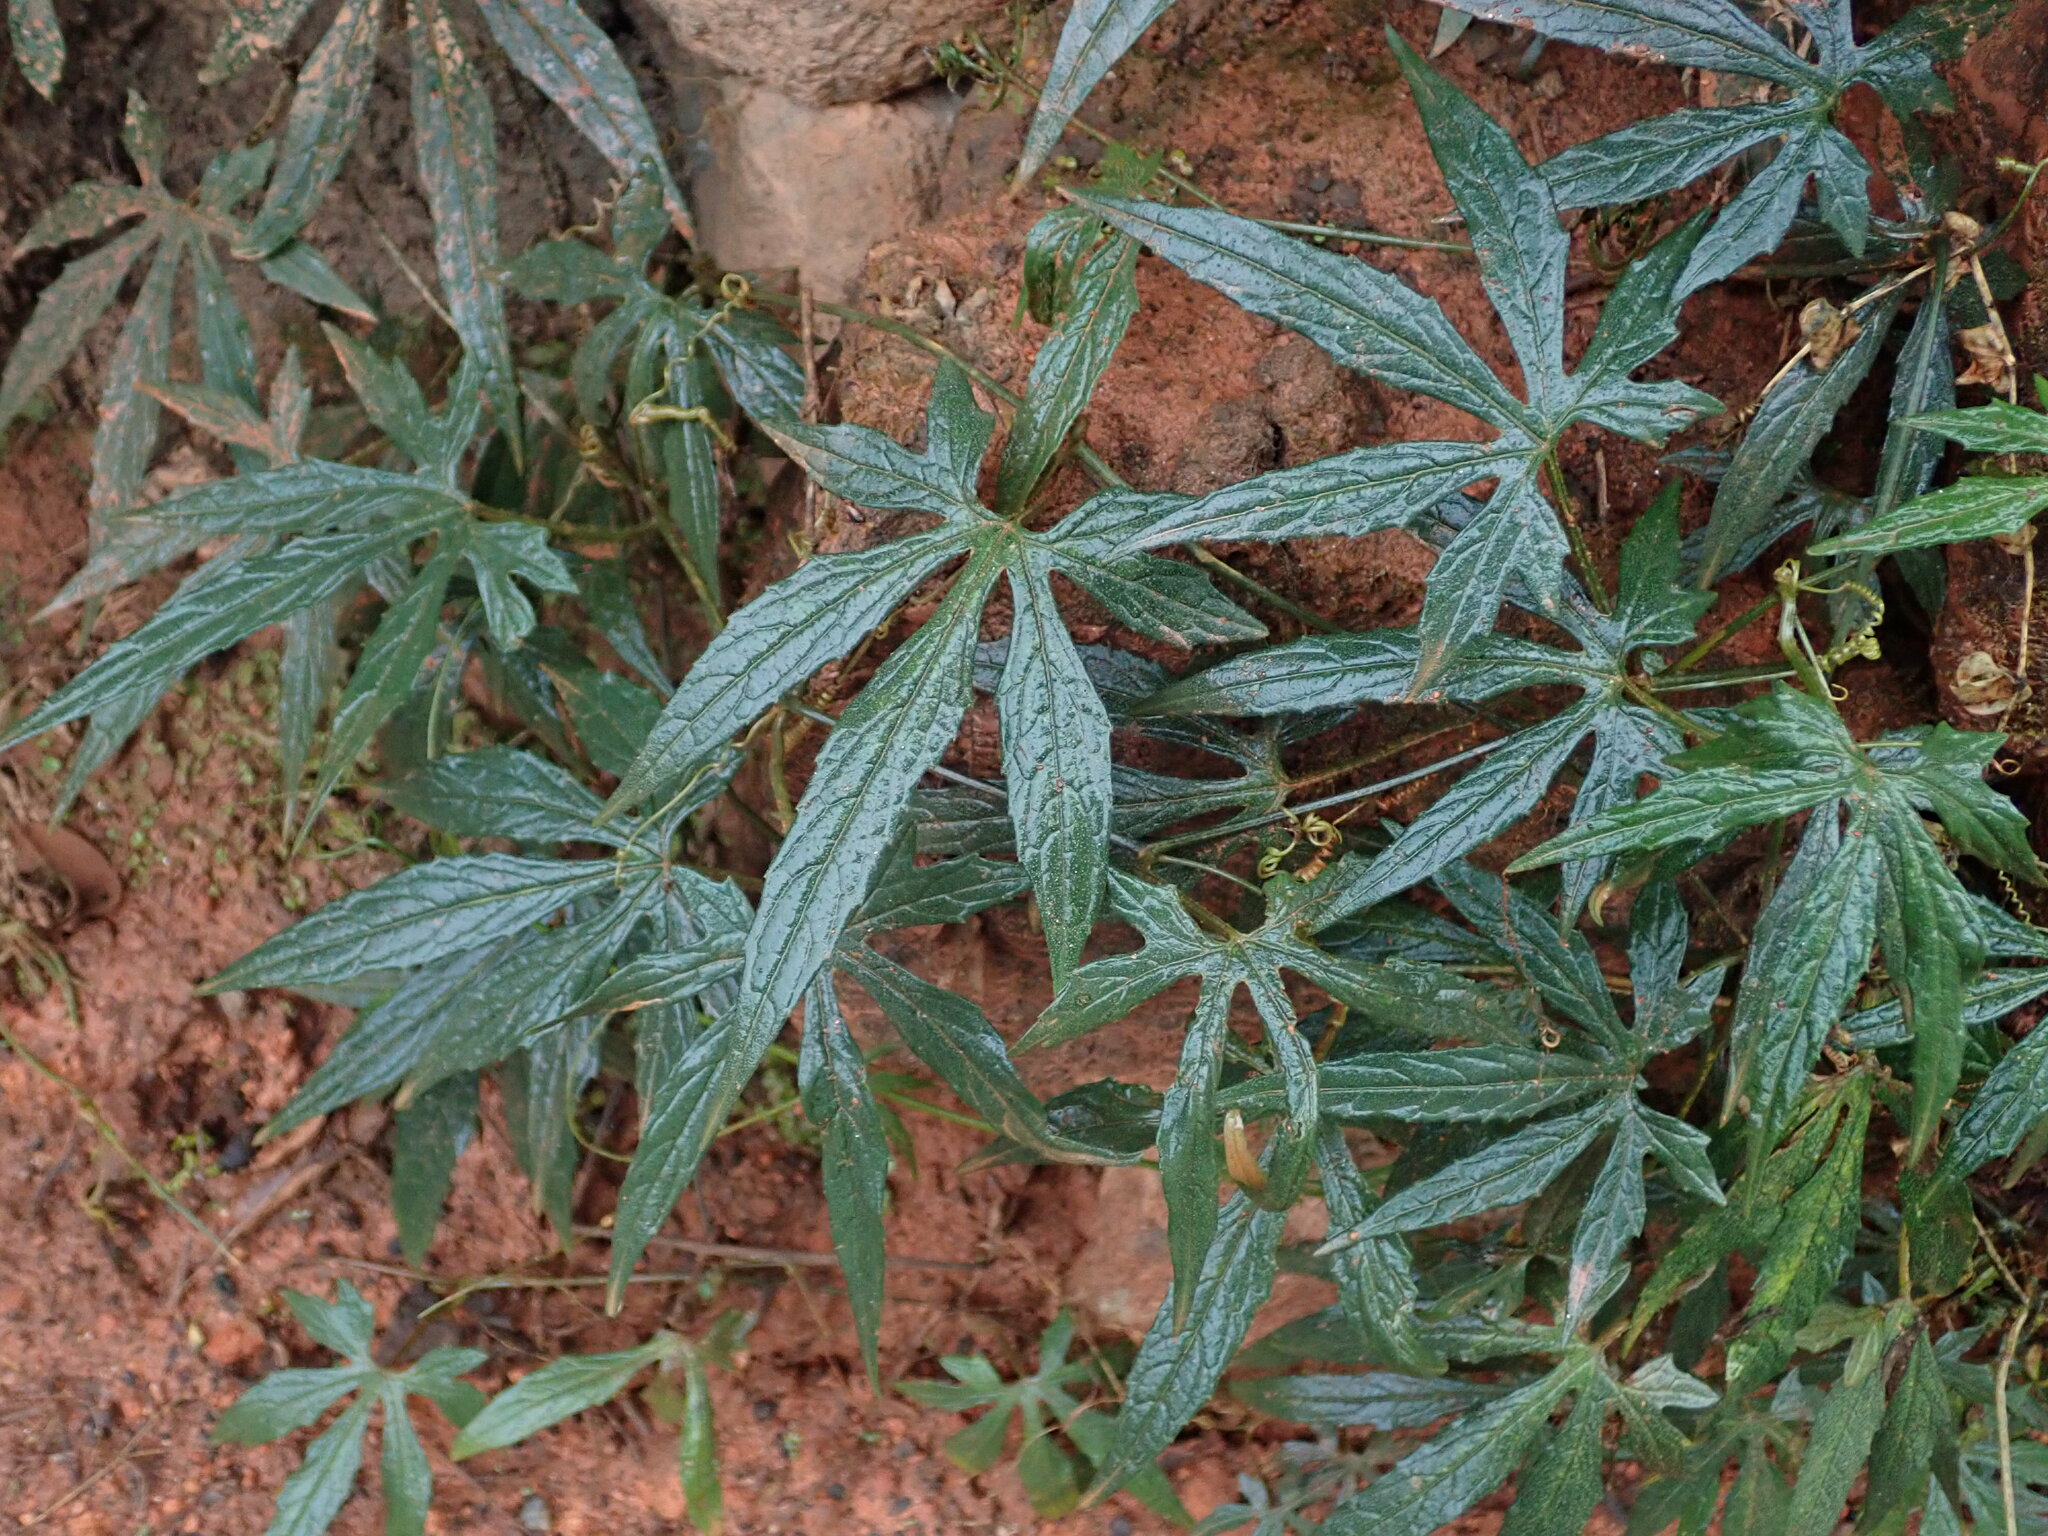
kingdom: Plantae
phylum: Tracheophyta
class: Magnoliopsida
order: Cucurbitales
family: Cucurbitaceae
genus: Diplocyclos
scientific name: Diplocyclos palmatus
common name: Striped-cucumber
